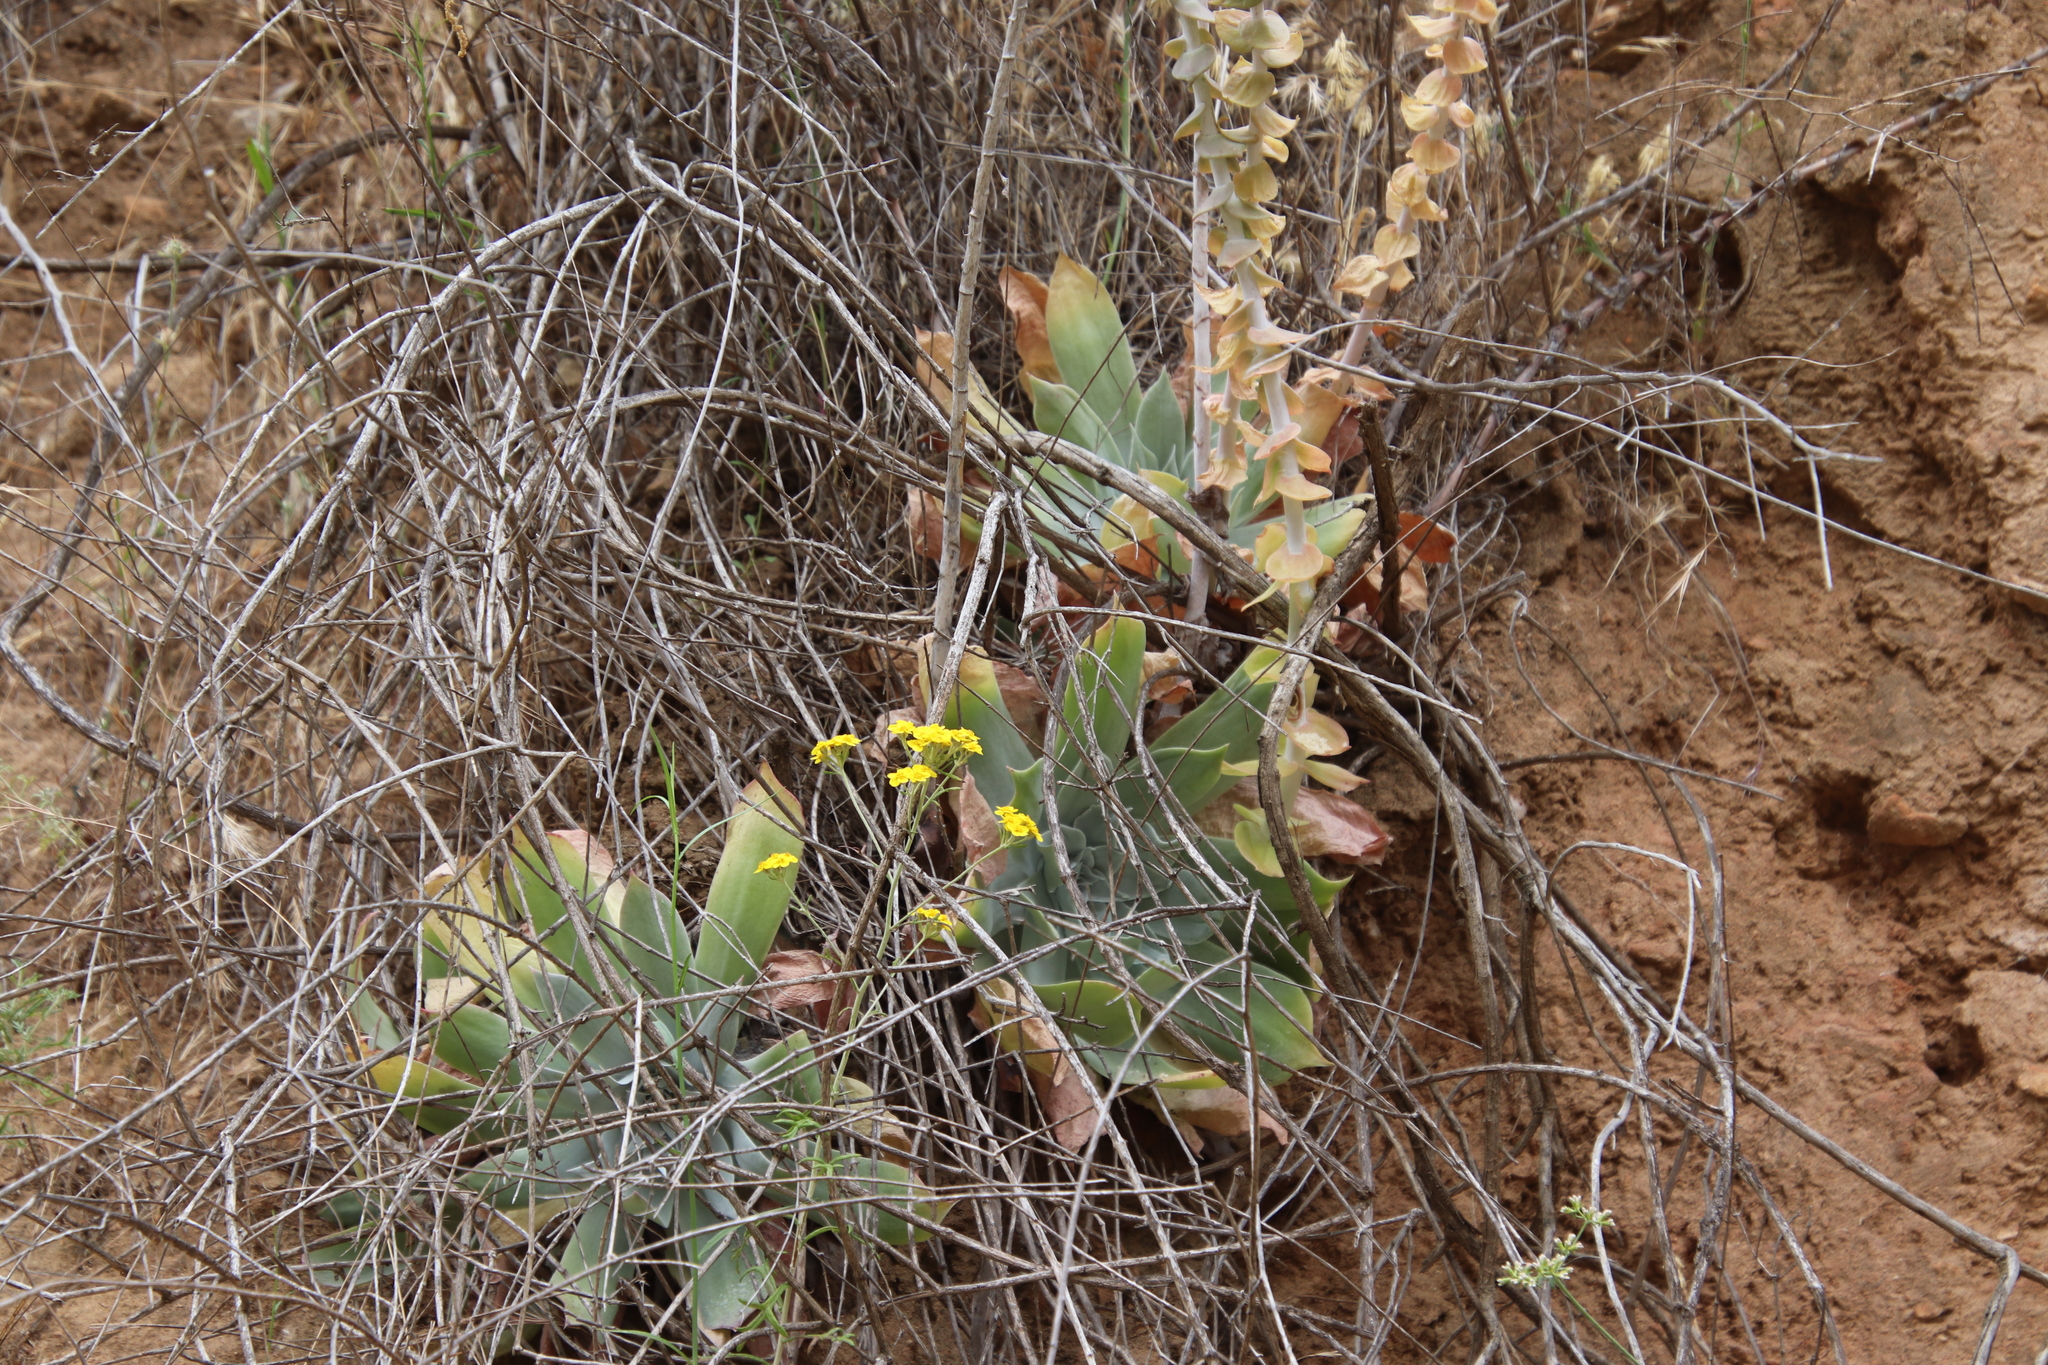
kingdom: Plantae
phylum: Tracheophyta
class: Magnoliopsida
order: Saxifragales
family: Crassulaceae
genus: Dudleya
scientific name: Dudleya pulverulenta
